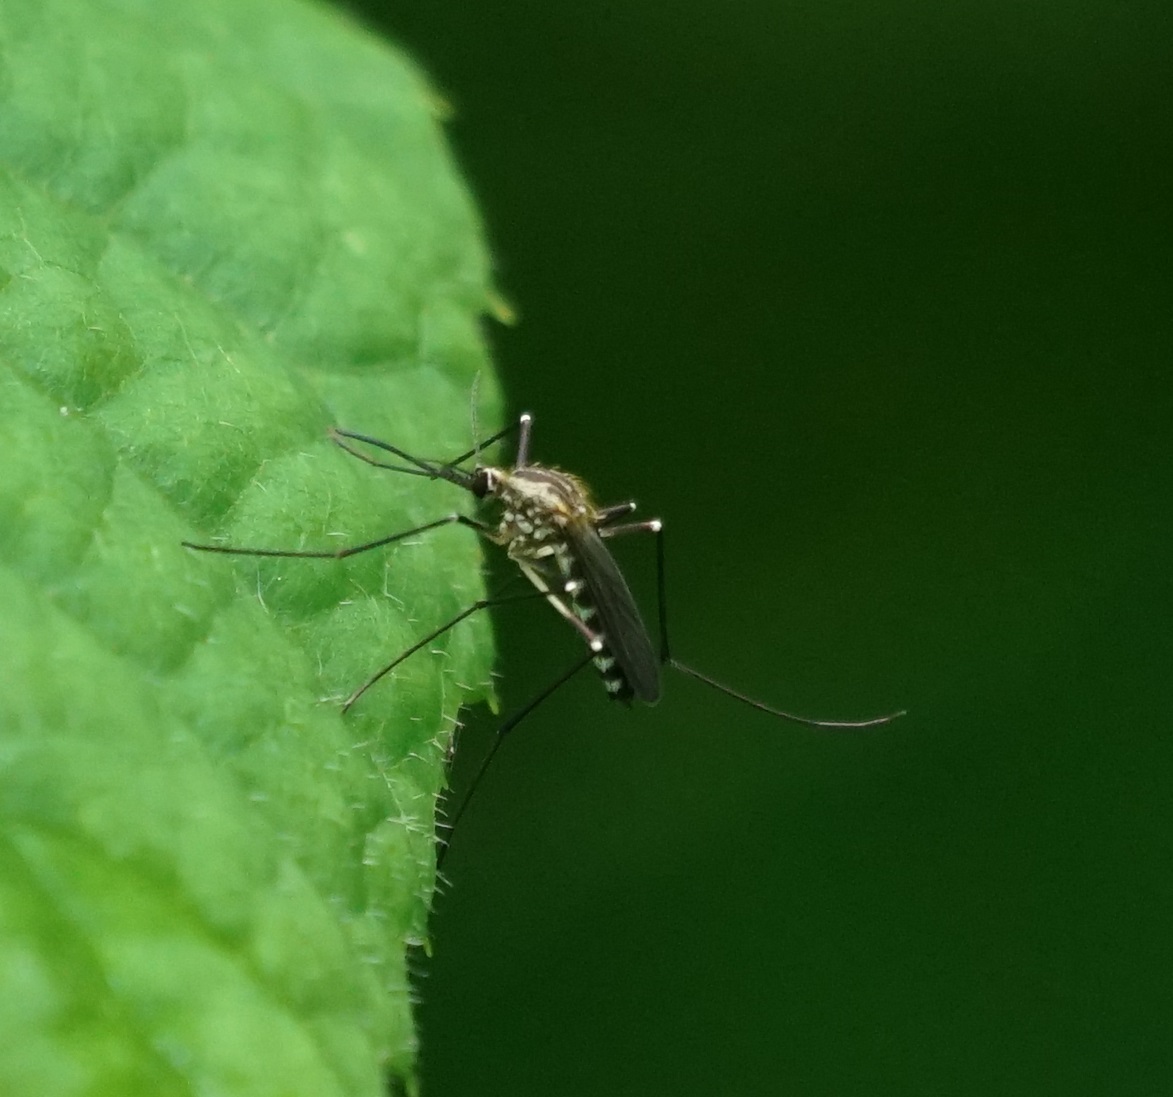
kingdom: Animalia
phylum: Arthropoda
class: Insecta
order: Diptera
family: Culicidae
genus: Aedes
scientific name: Aedes geniculatus
